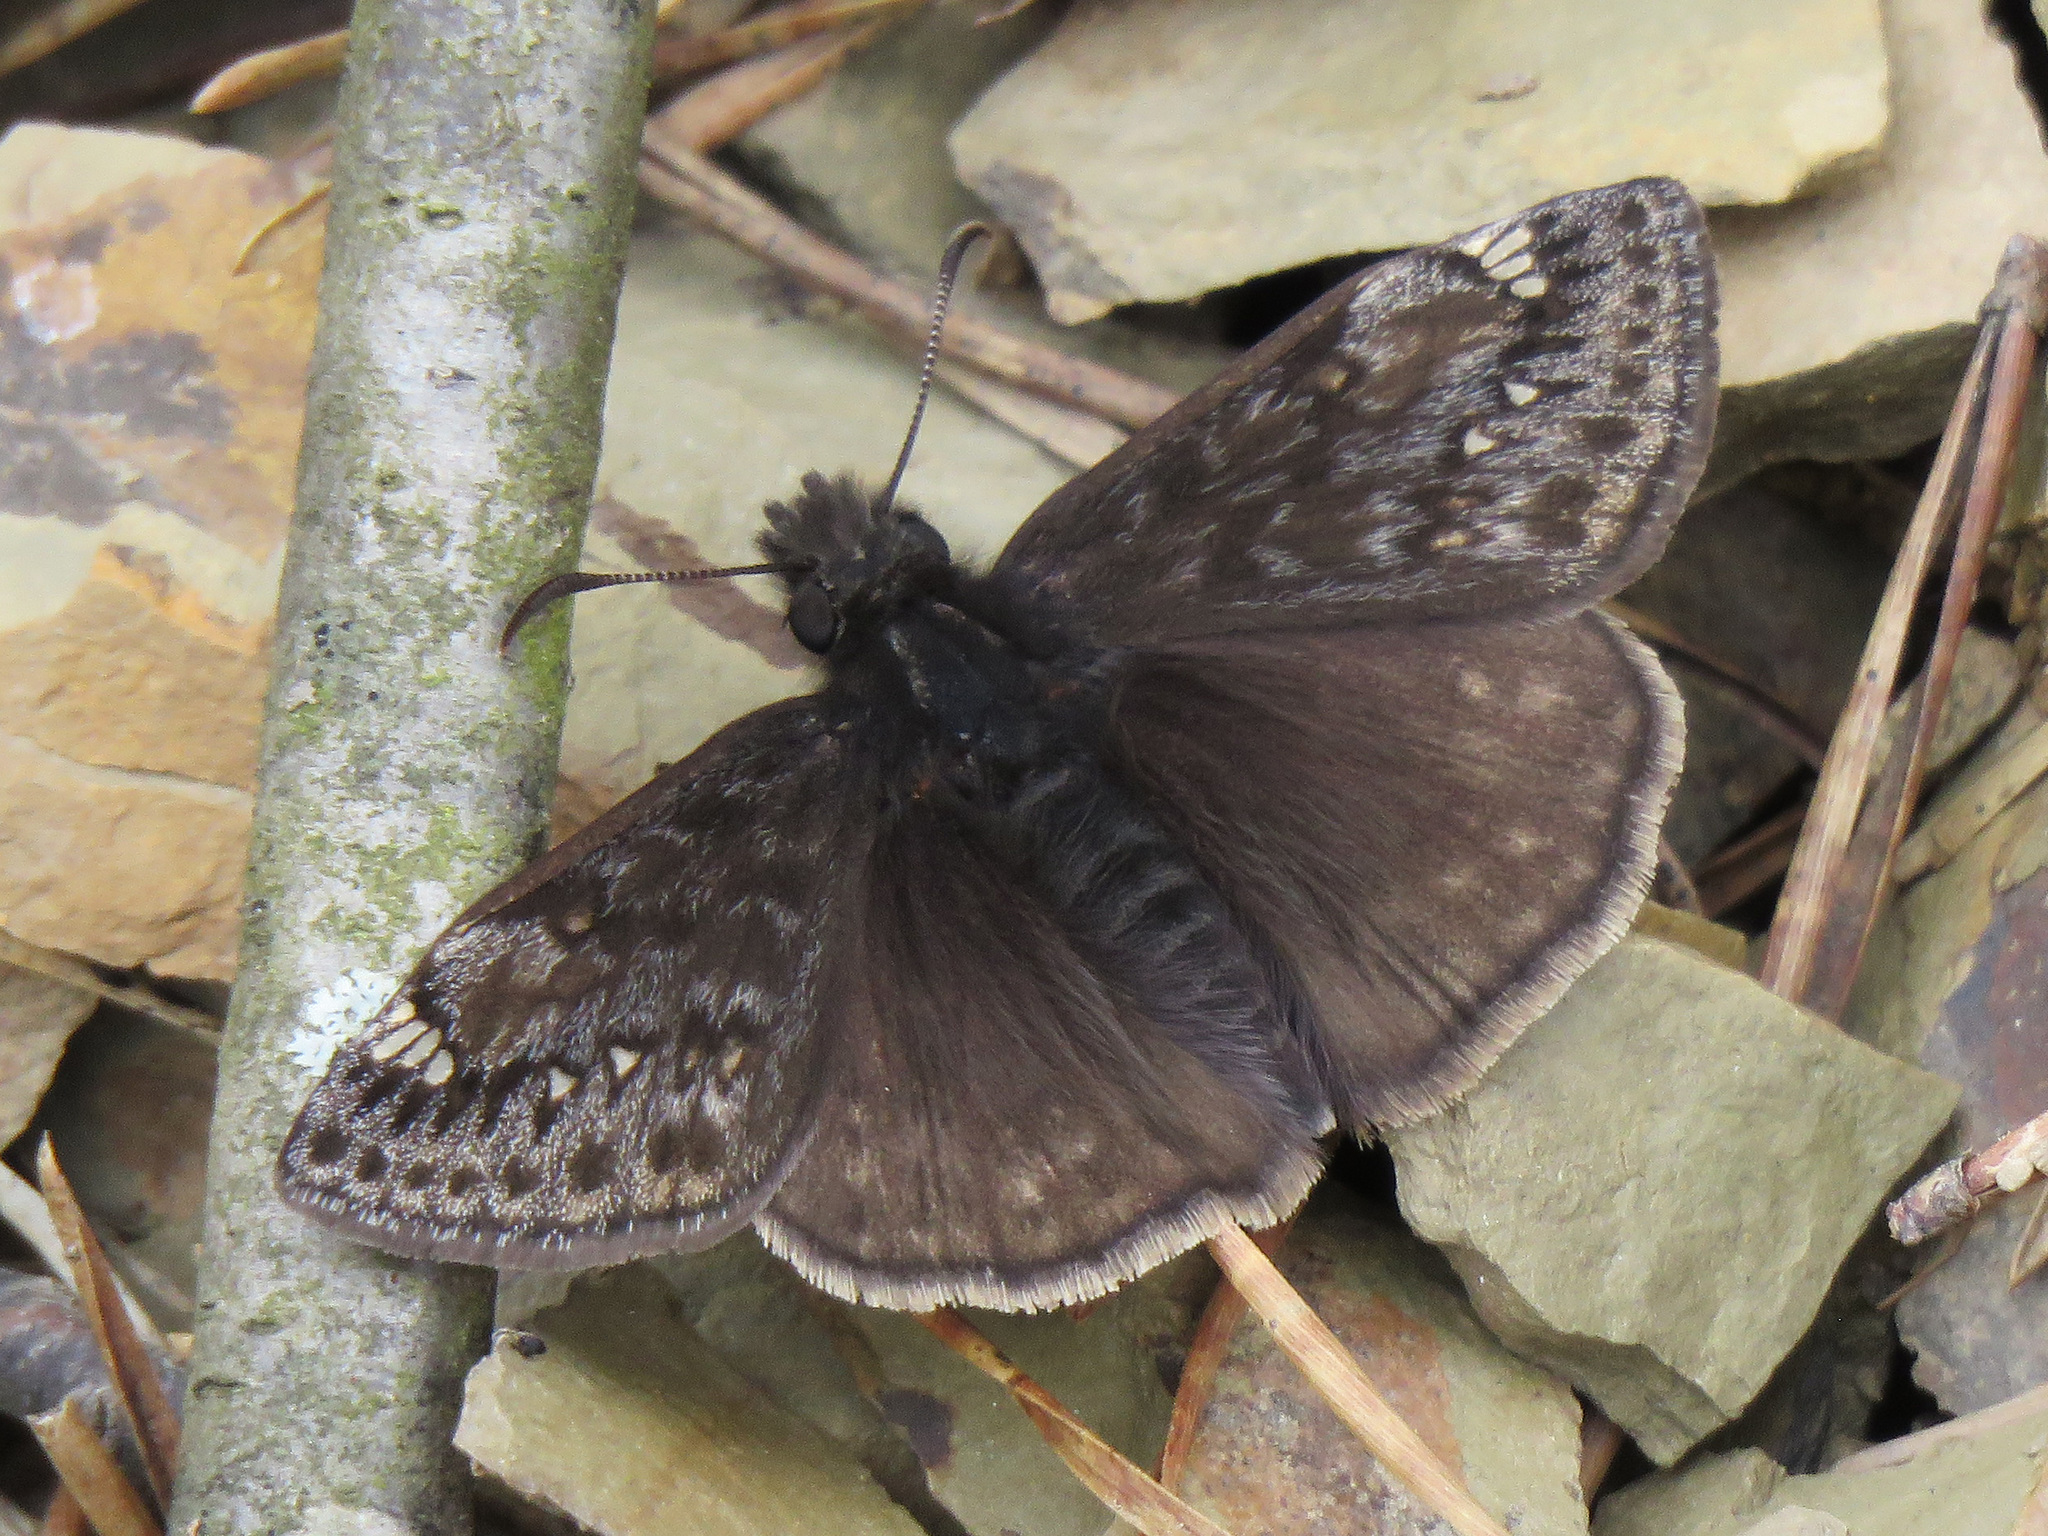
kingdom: Animalia
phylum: Arthropoda
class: Insecta
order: Lepidoptera
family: Hesperiidae
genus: Erynnis
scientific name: Erynnis juvenalis
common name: Juvenal's duskywing
